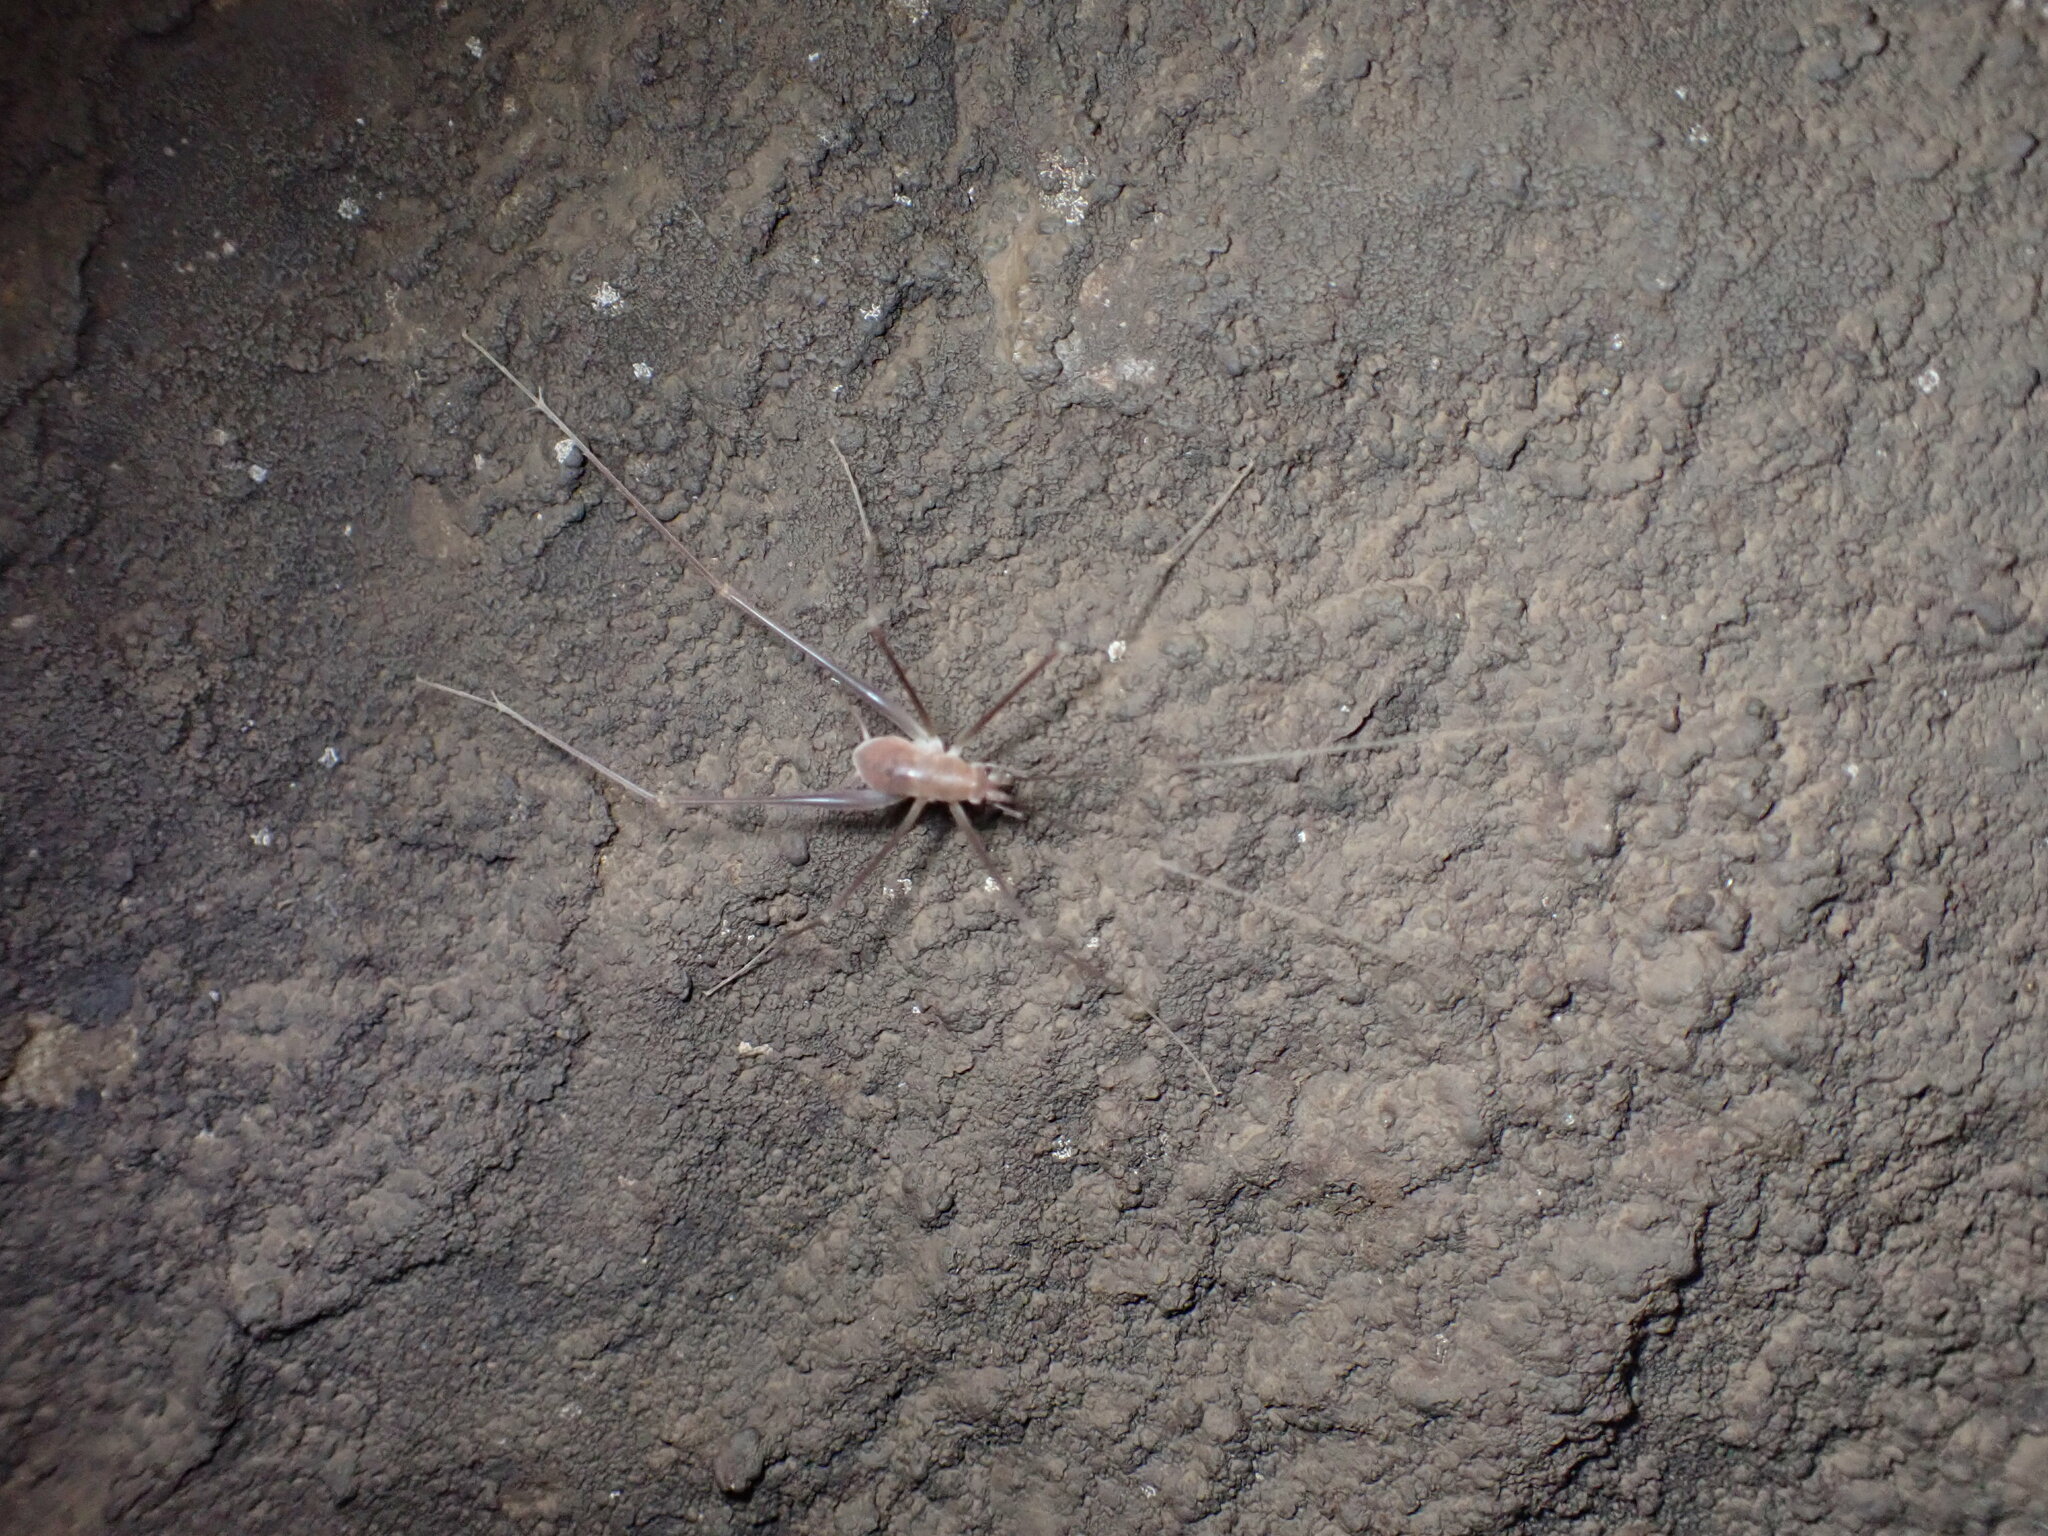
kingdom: Animalia
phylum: Arthropoda
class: Insecta
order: Orthoptera
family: Rhaphidophoridae
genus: Hadenoecus
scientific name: Hadenoecus jonesi
